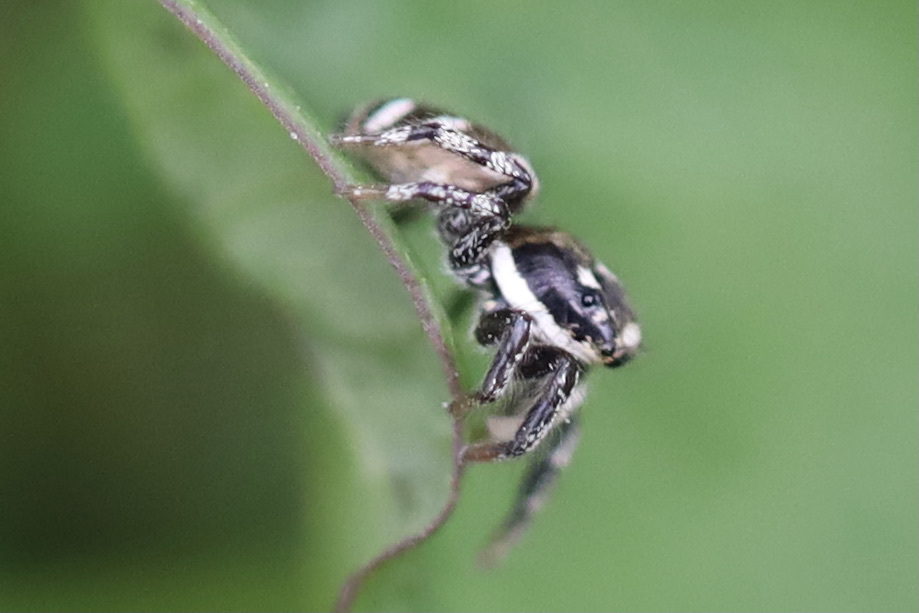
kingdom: Animalia
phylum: Arthropoda
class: Arachnida
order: Araneae
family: Salticidae
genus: Salticus
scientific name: Salticus scenicus
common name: Zebra jumper
